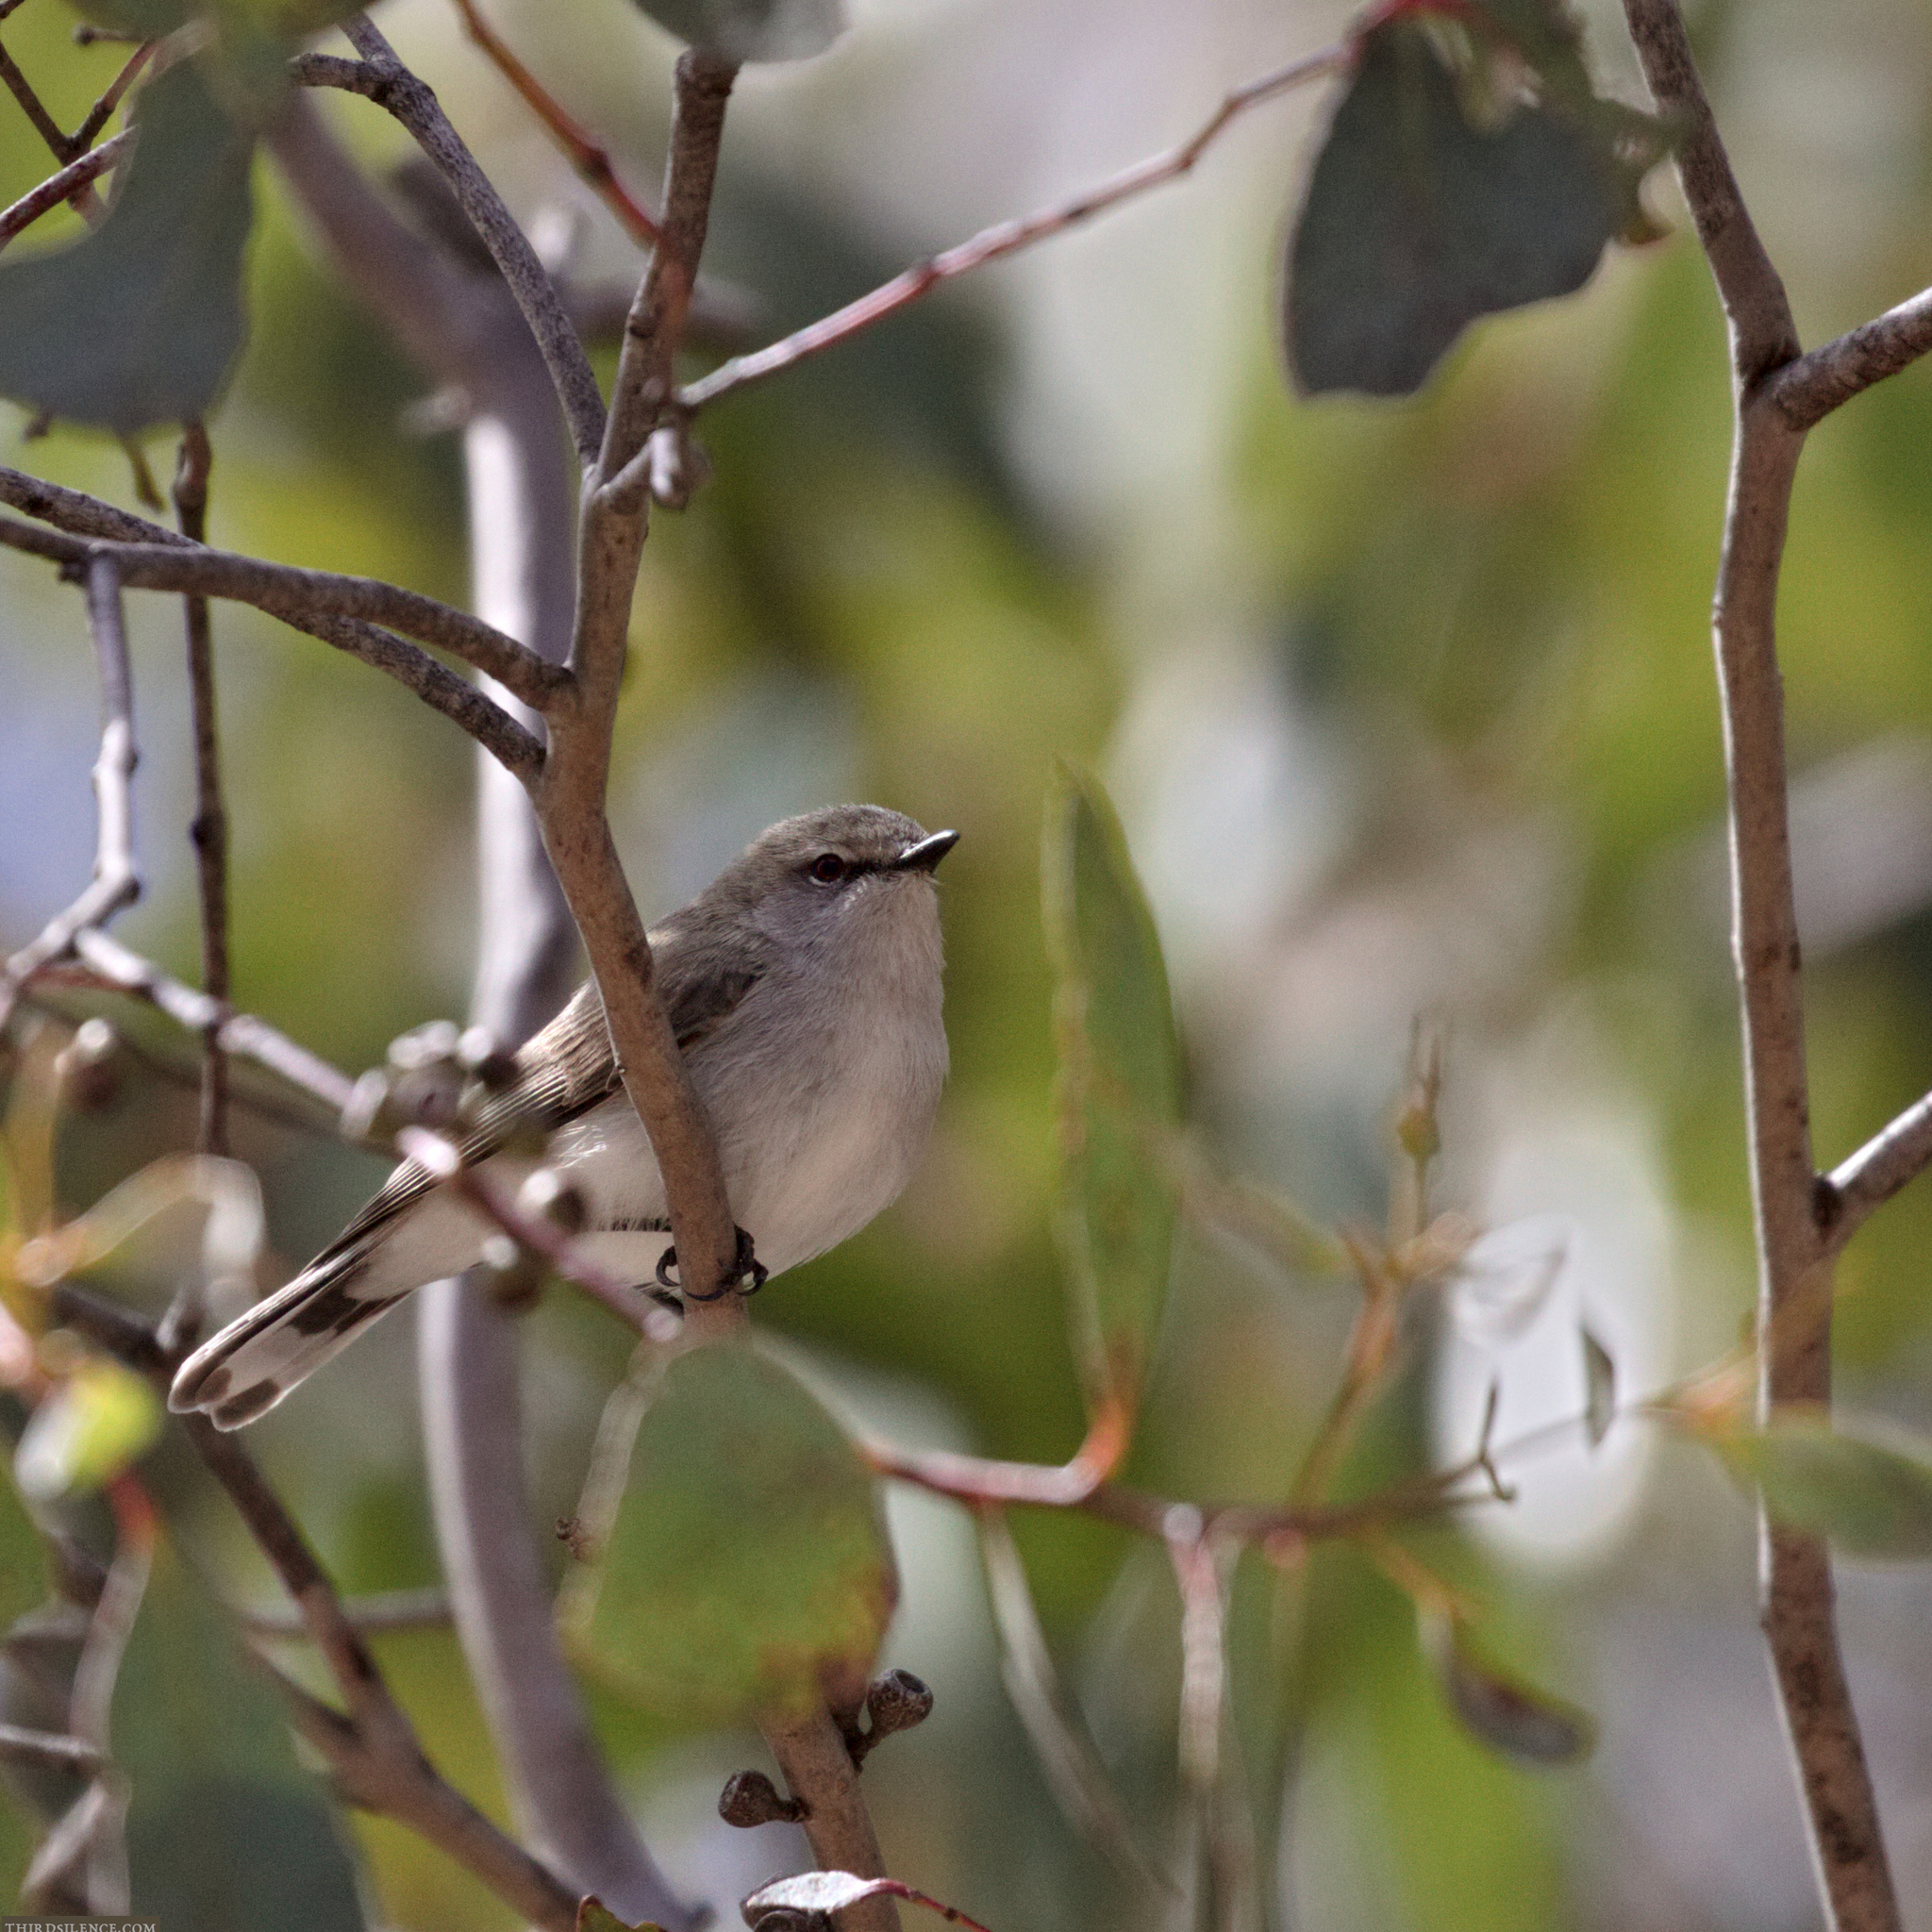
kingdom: Animalia
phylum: Chordata
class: Aves
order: Passeriformes
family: Acanthizidae
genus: Gerygone
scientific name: Gerygone fusca
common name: Western gerygone
